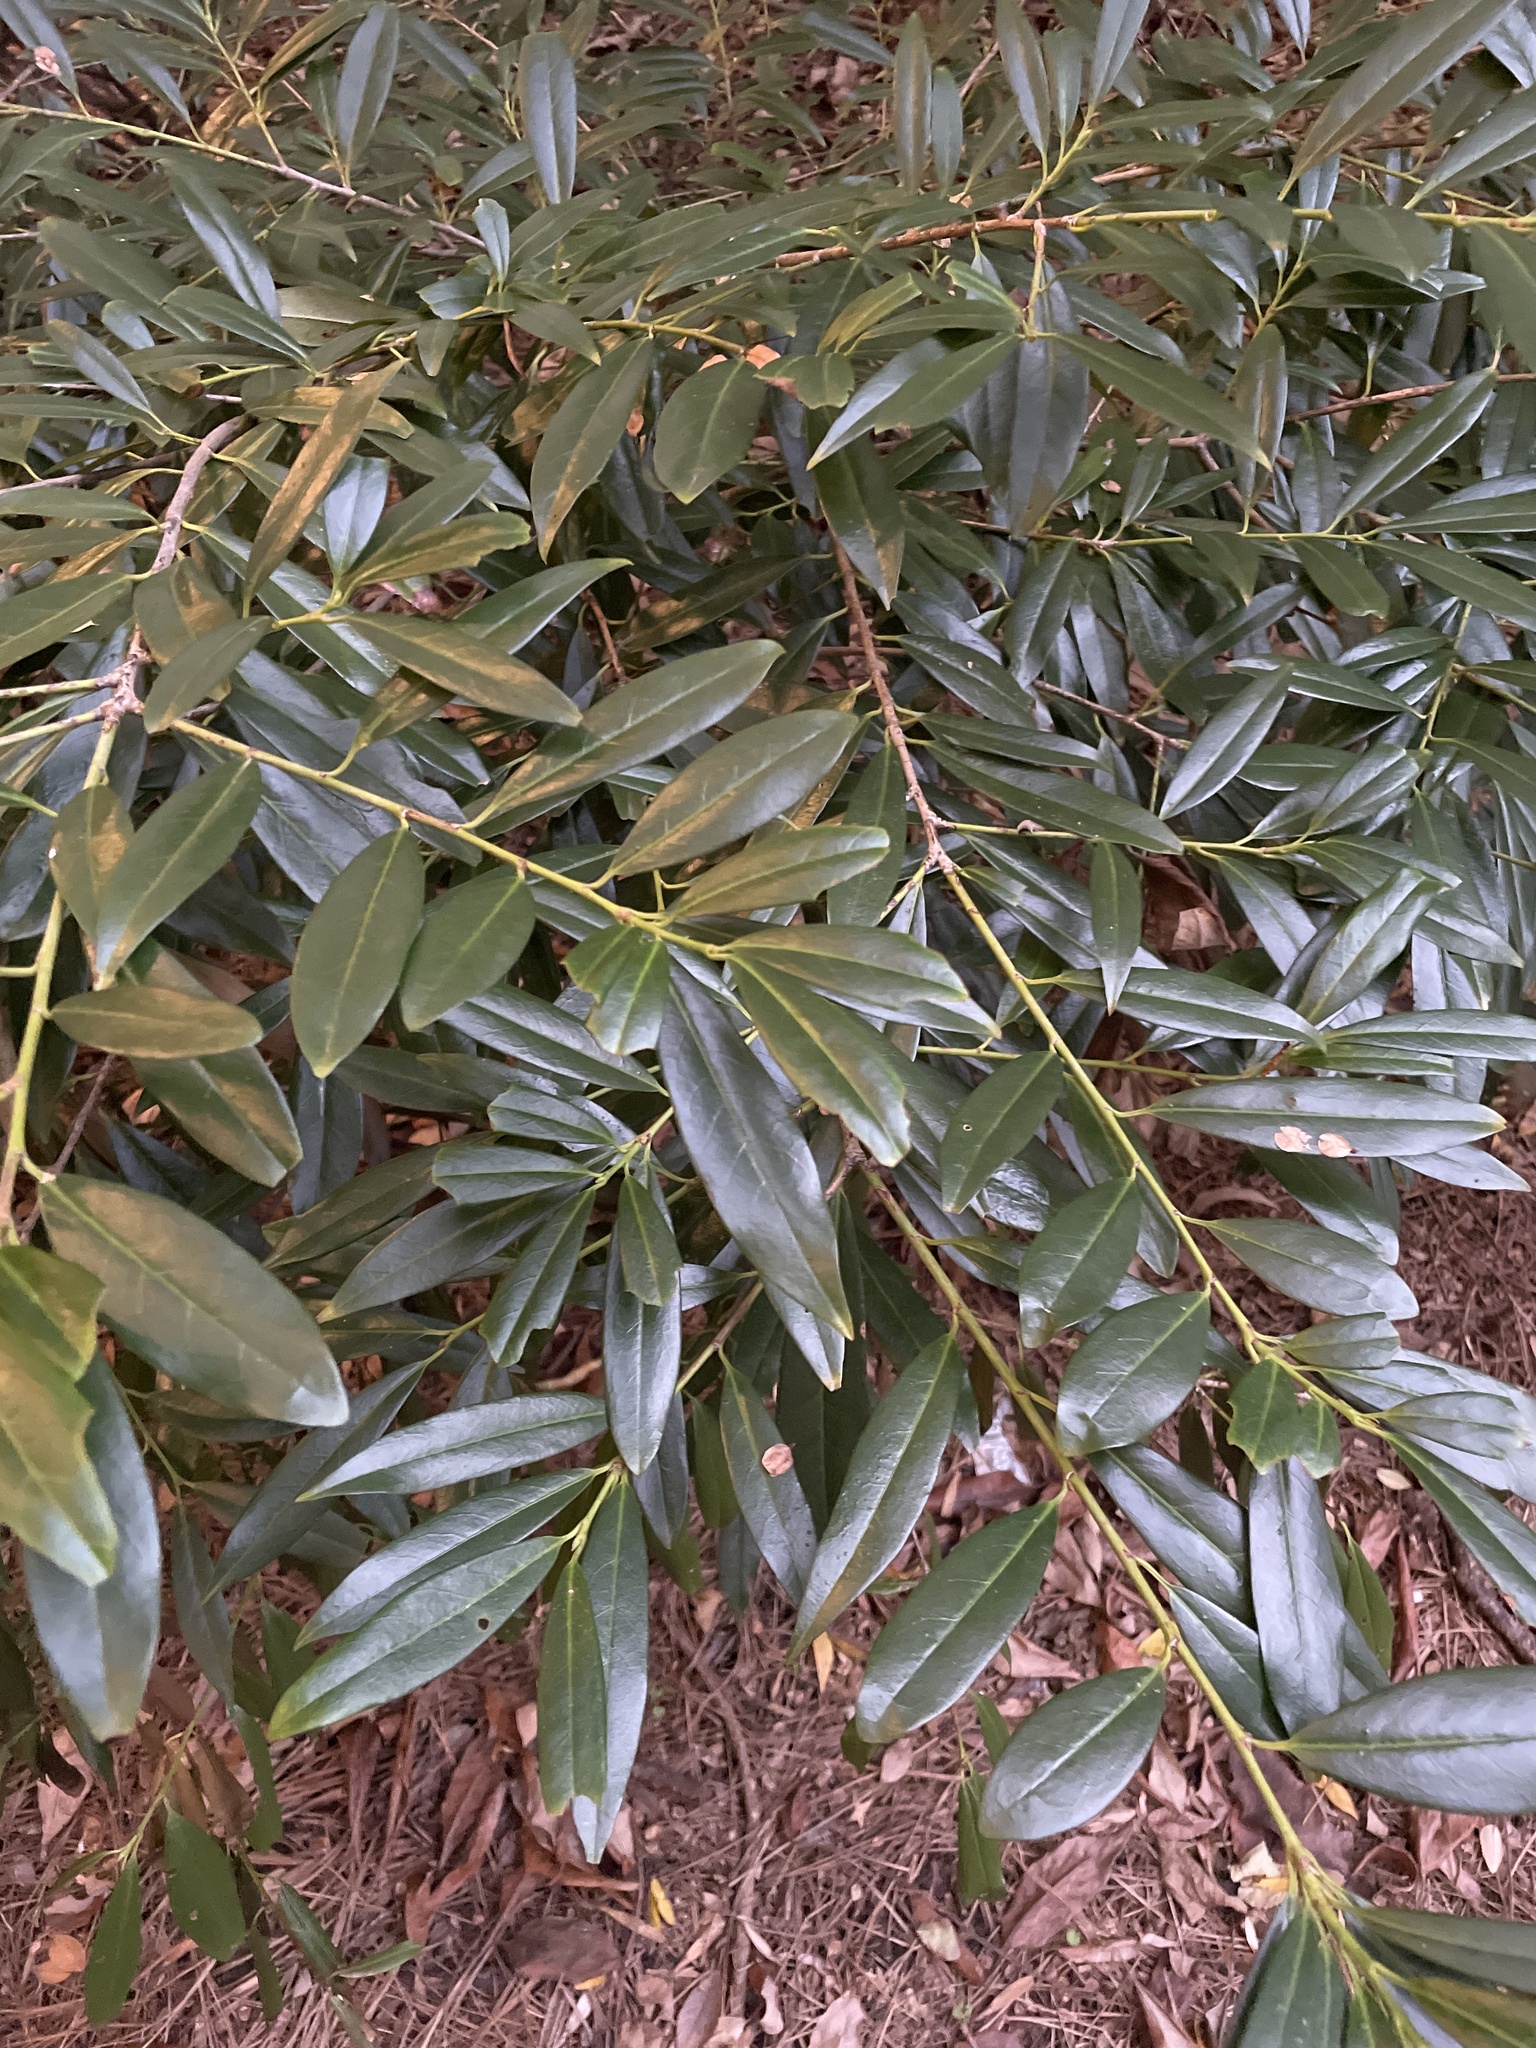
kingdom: Plantae
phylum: Tracheophyta
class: Magnoliopsida
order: Rosales
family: Rosaceae
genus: Prunus
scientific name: Prunus laurocerasus
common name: Cherry laurel
